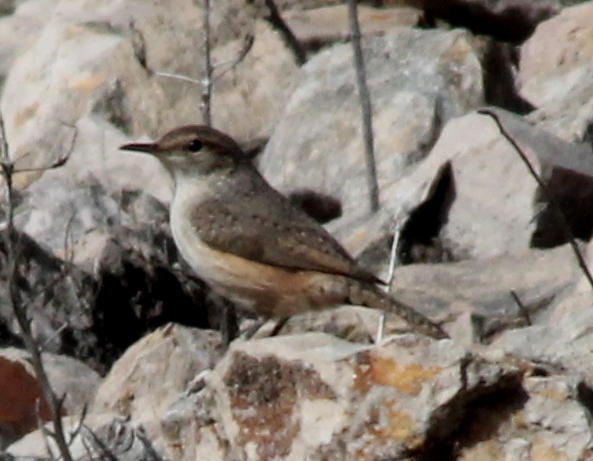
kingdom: Animalia
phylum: Chordata
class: Aves
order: Passeriformes
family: Troglodytidae
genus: Salpinctes
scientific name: Salpinctes obsoletus
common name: Rock wren
